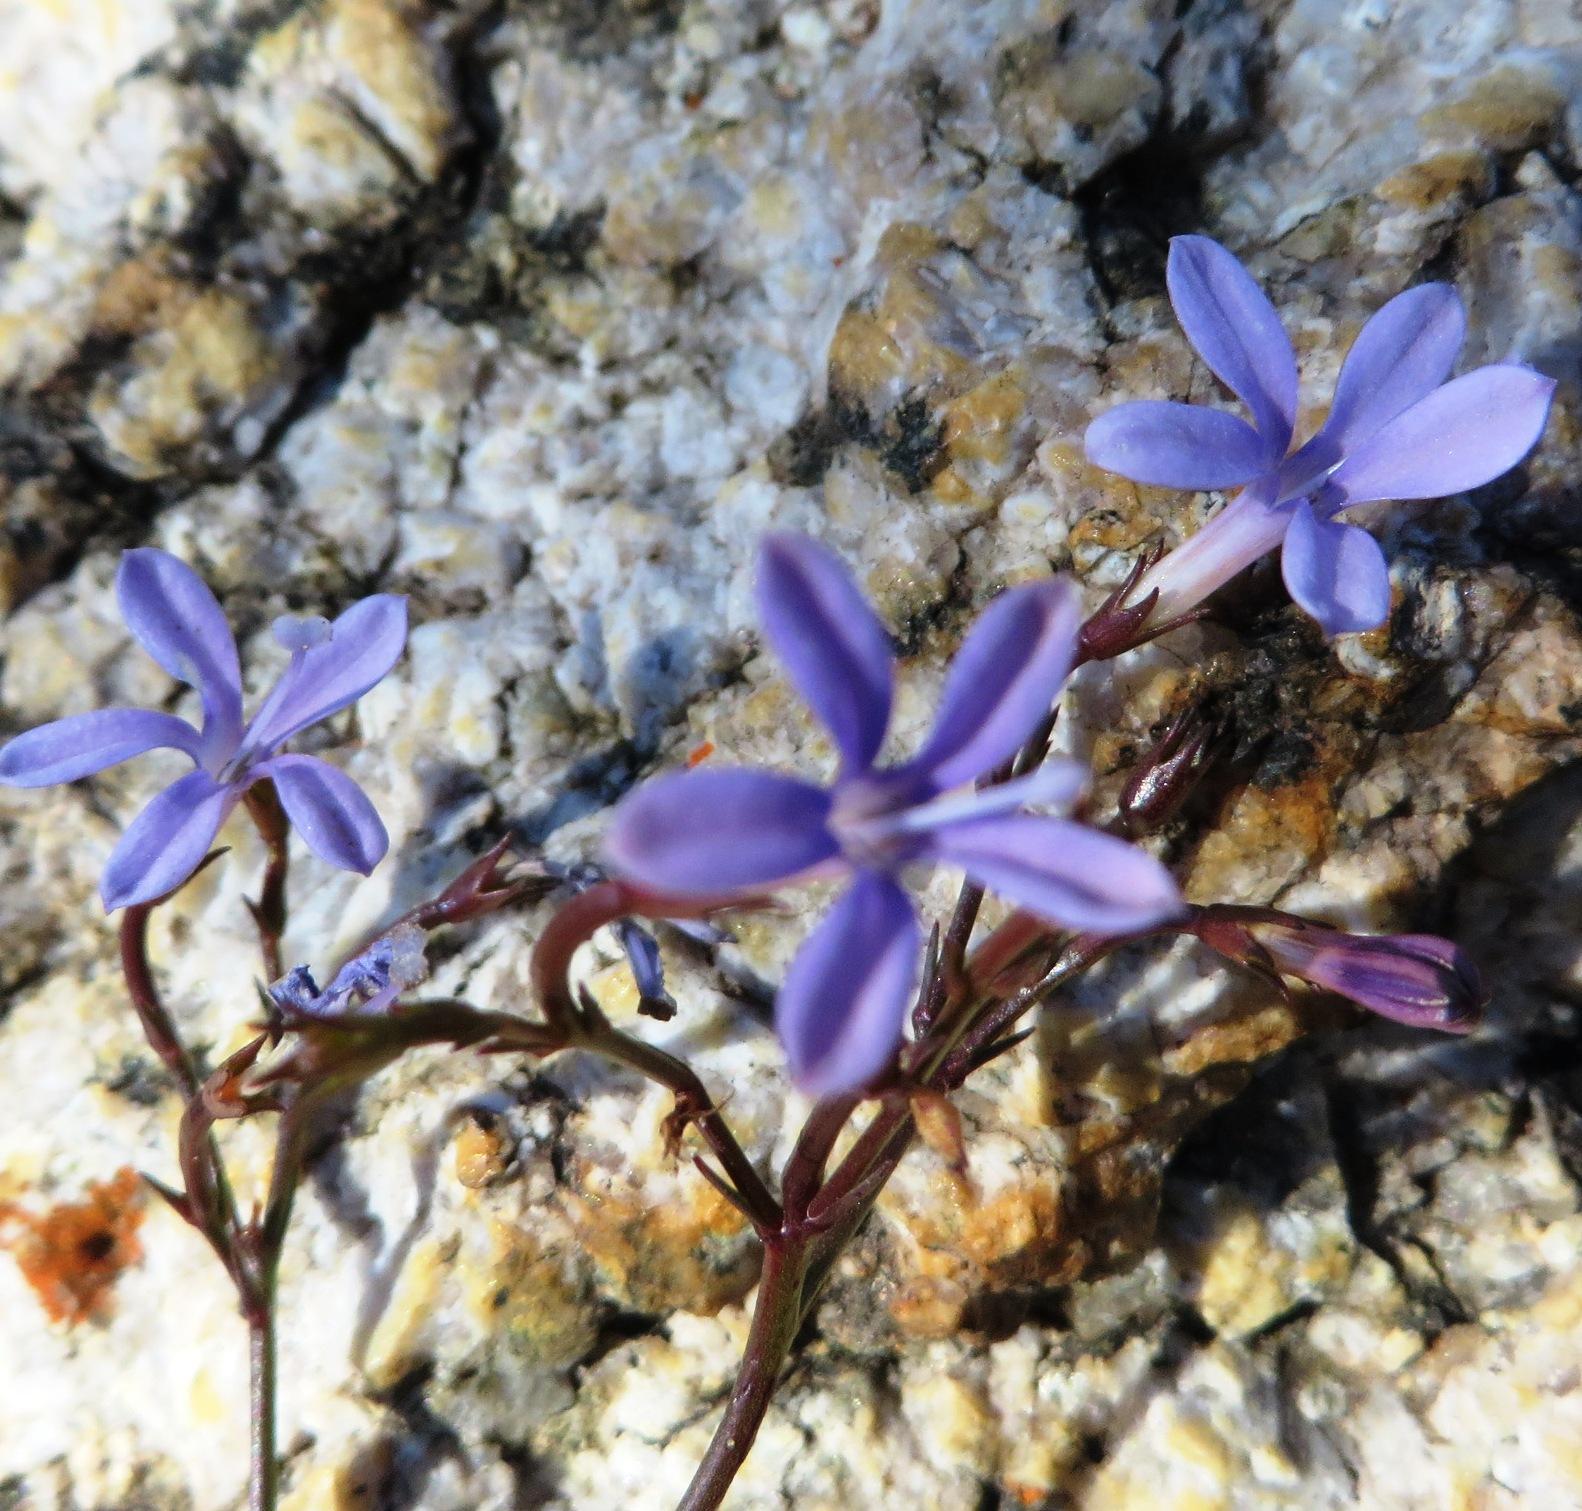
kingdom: Plantae
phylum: Tracheophyta
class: Magnoliopsida
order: Asterales
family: Campanulaceae
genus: Prismatocarpus
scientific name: Prismatocarpus diffusus
